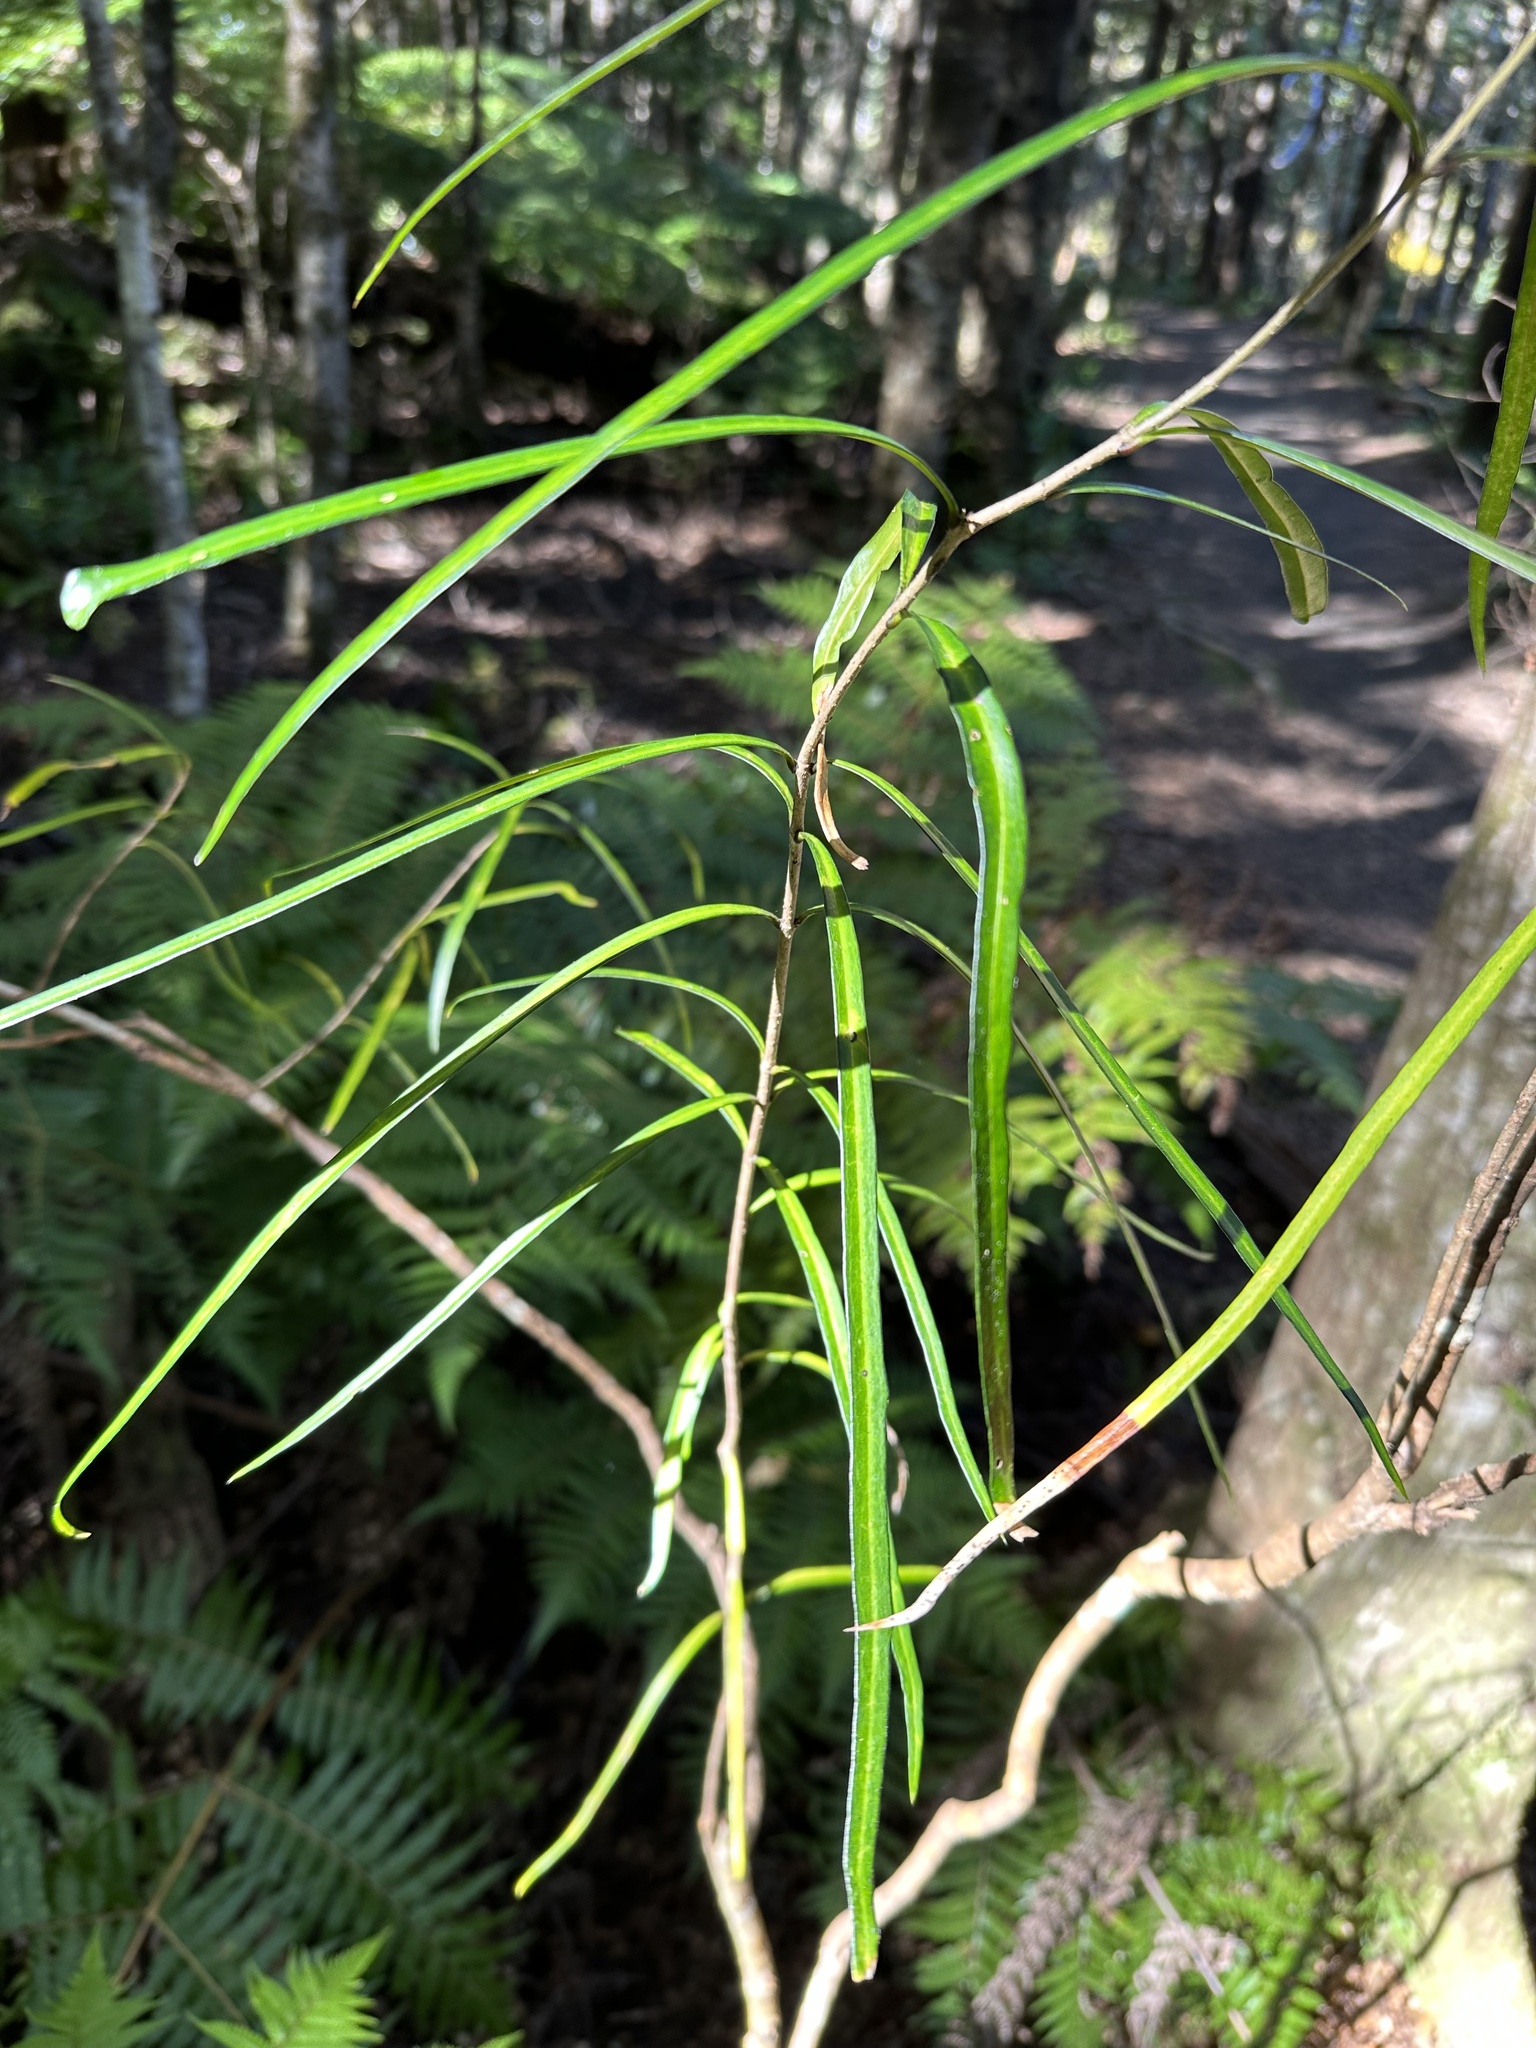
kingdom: Plantae
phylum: Tracheophyta
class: Magnoliopsida
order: Lamiales
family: Oleaceae
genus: Nestegis
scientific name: Nestegis lanceolata
